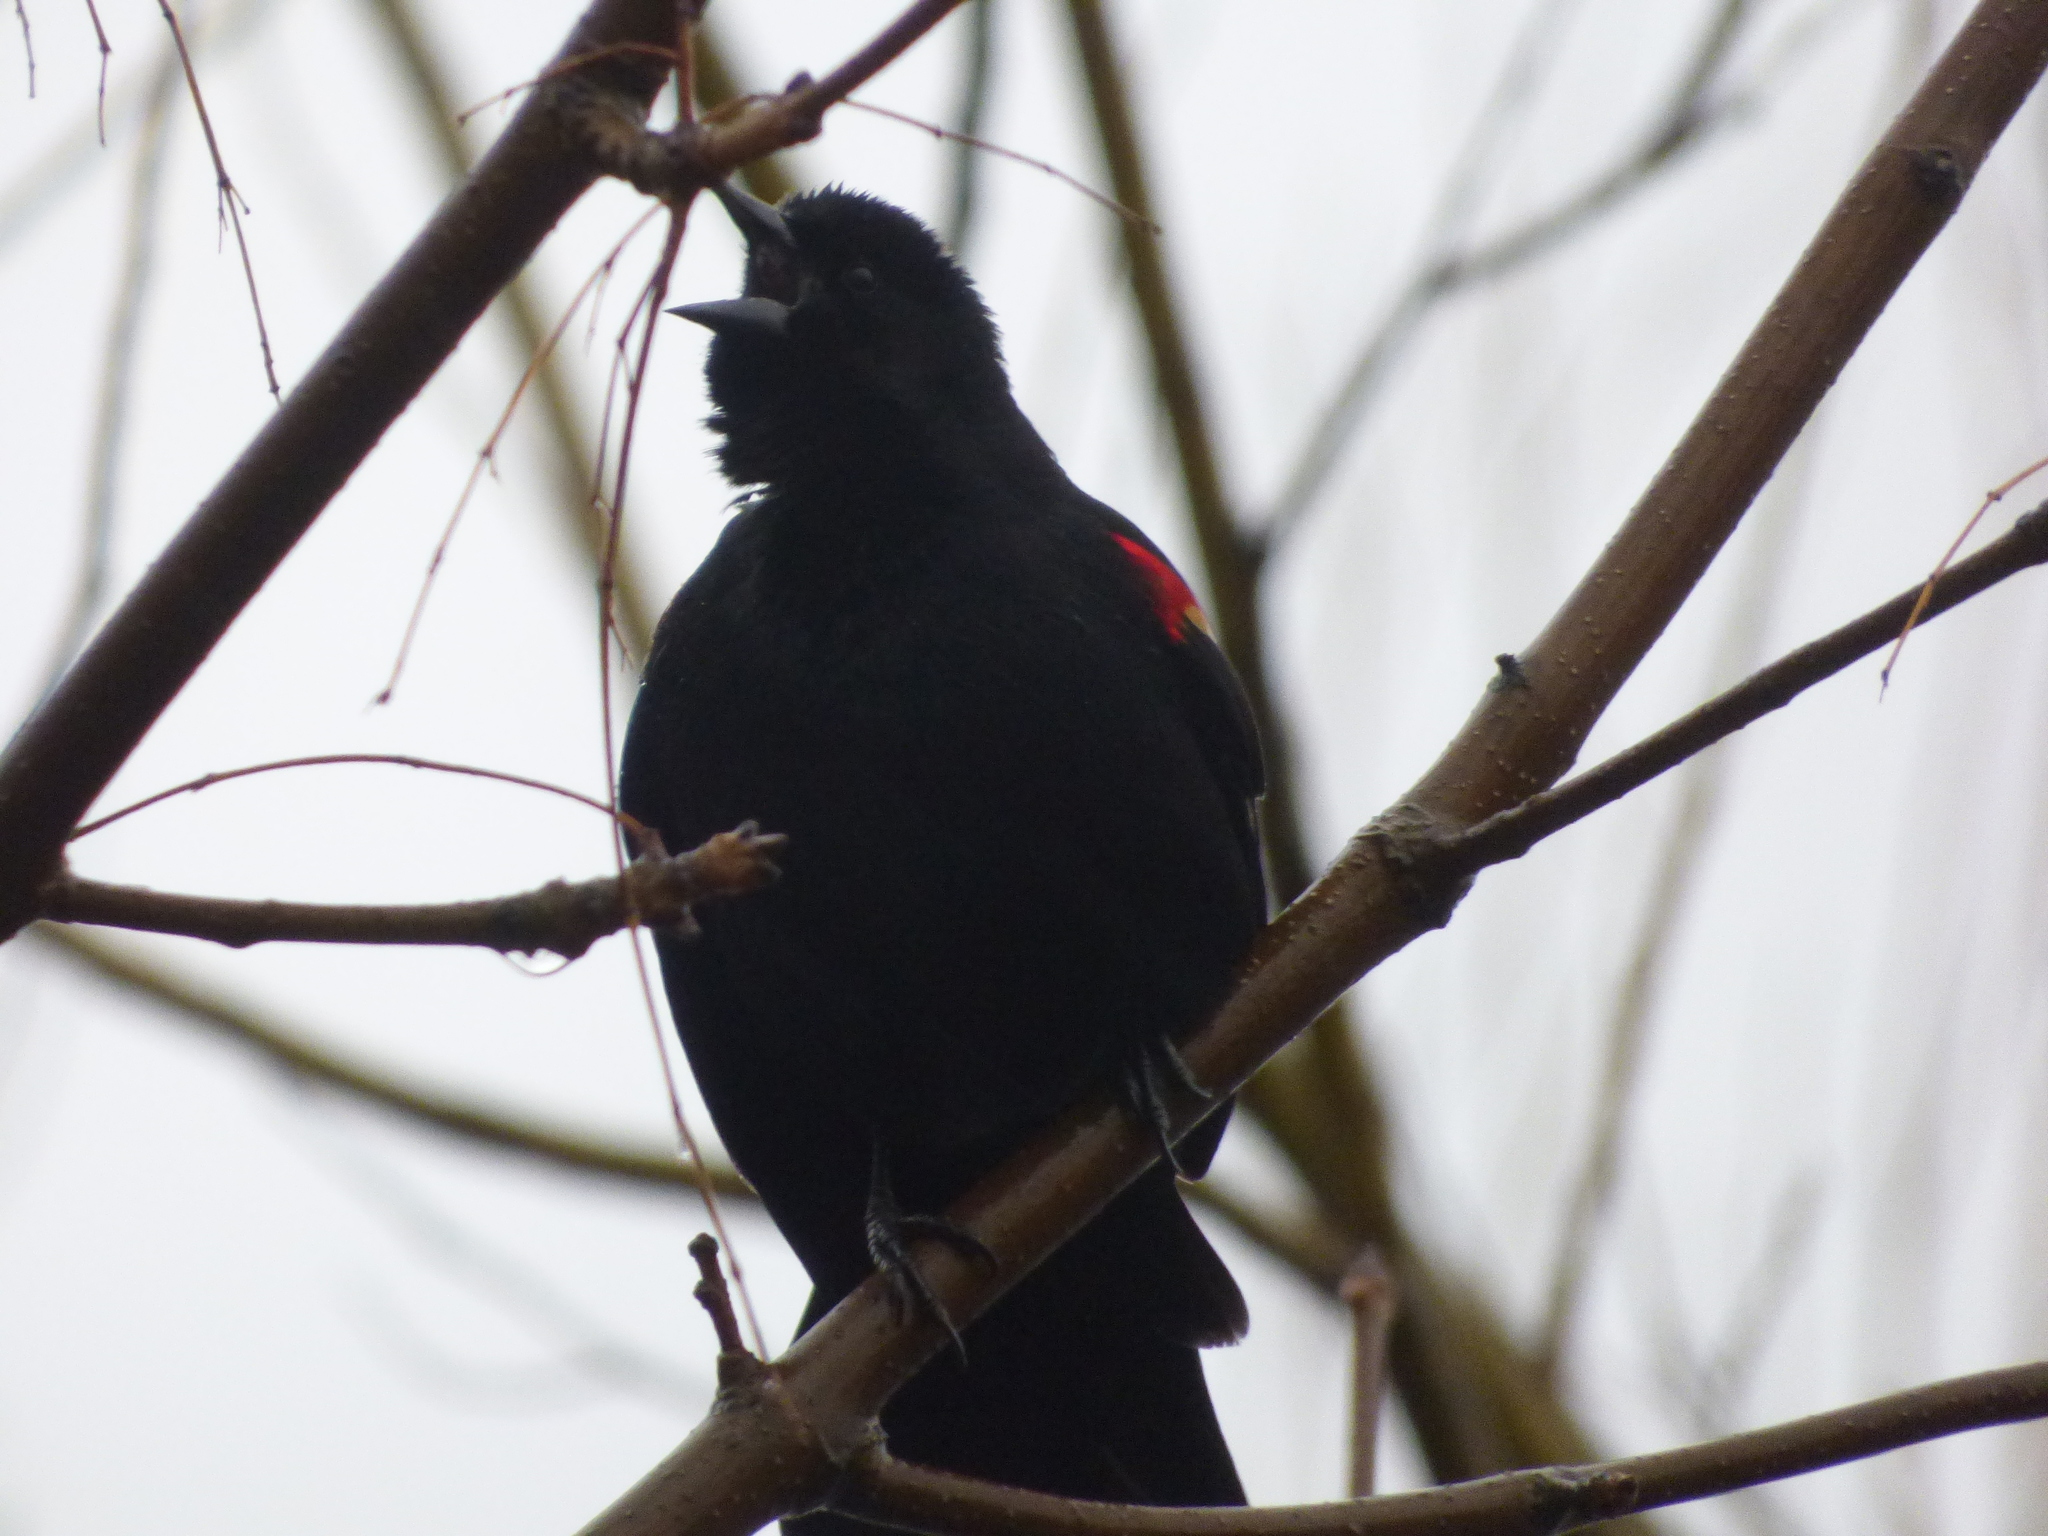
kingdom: Animalia
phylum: Chordata
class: Aves
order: Passeriformes
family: Icteridae
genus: Agelaius
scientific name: Agelaius phoeniceus
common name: Red-winged blackbird
